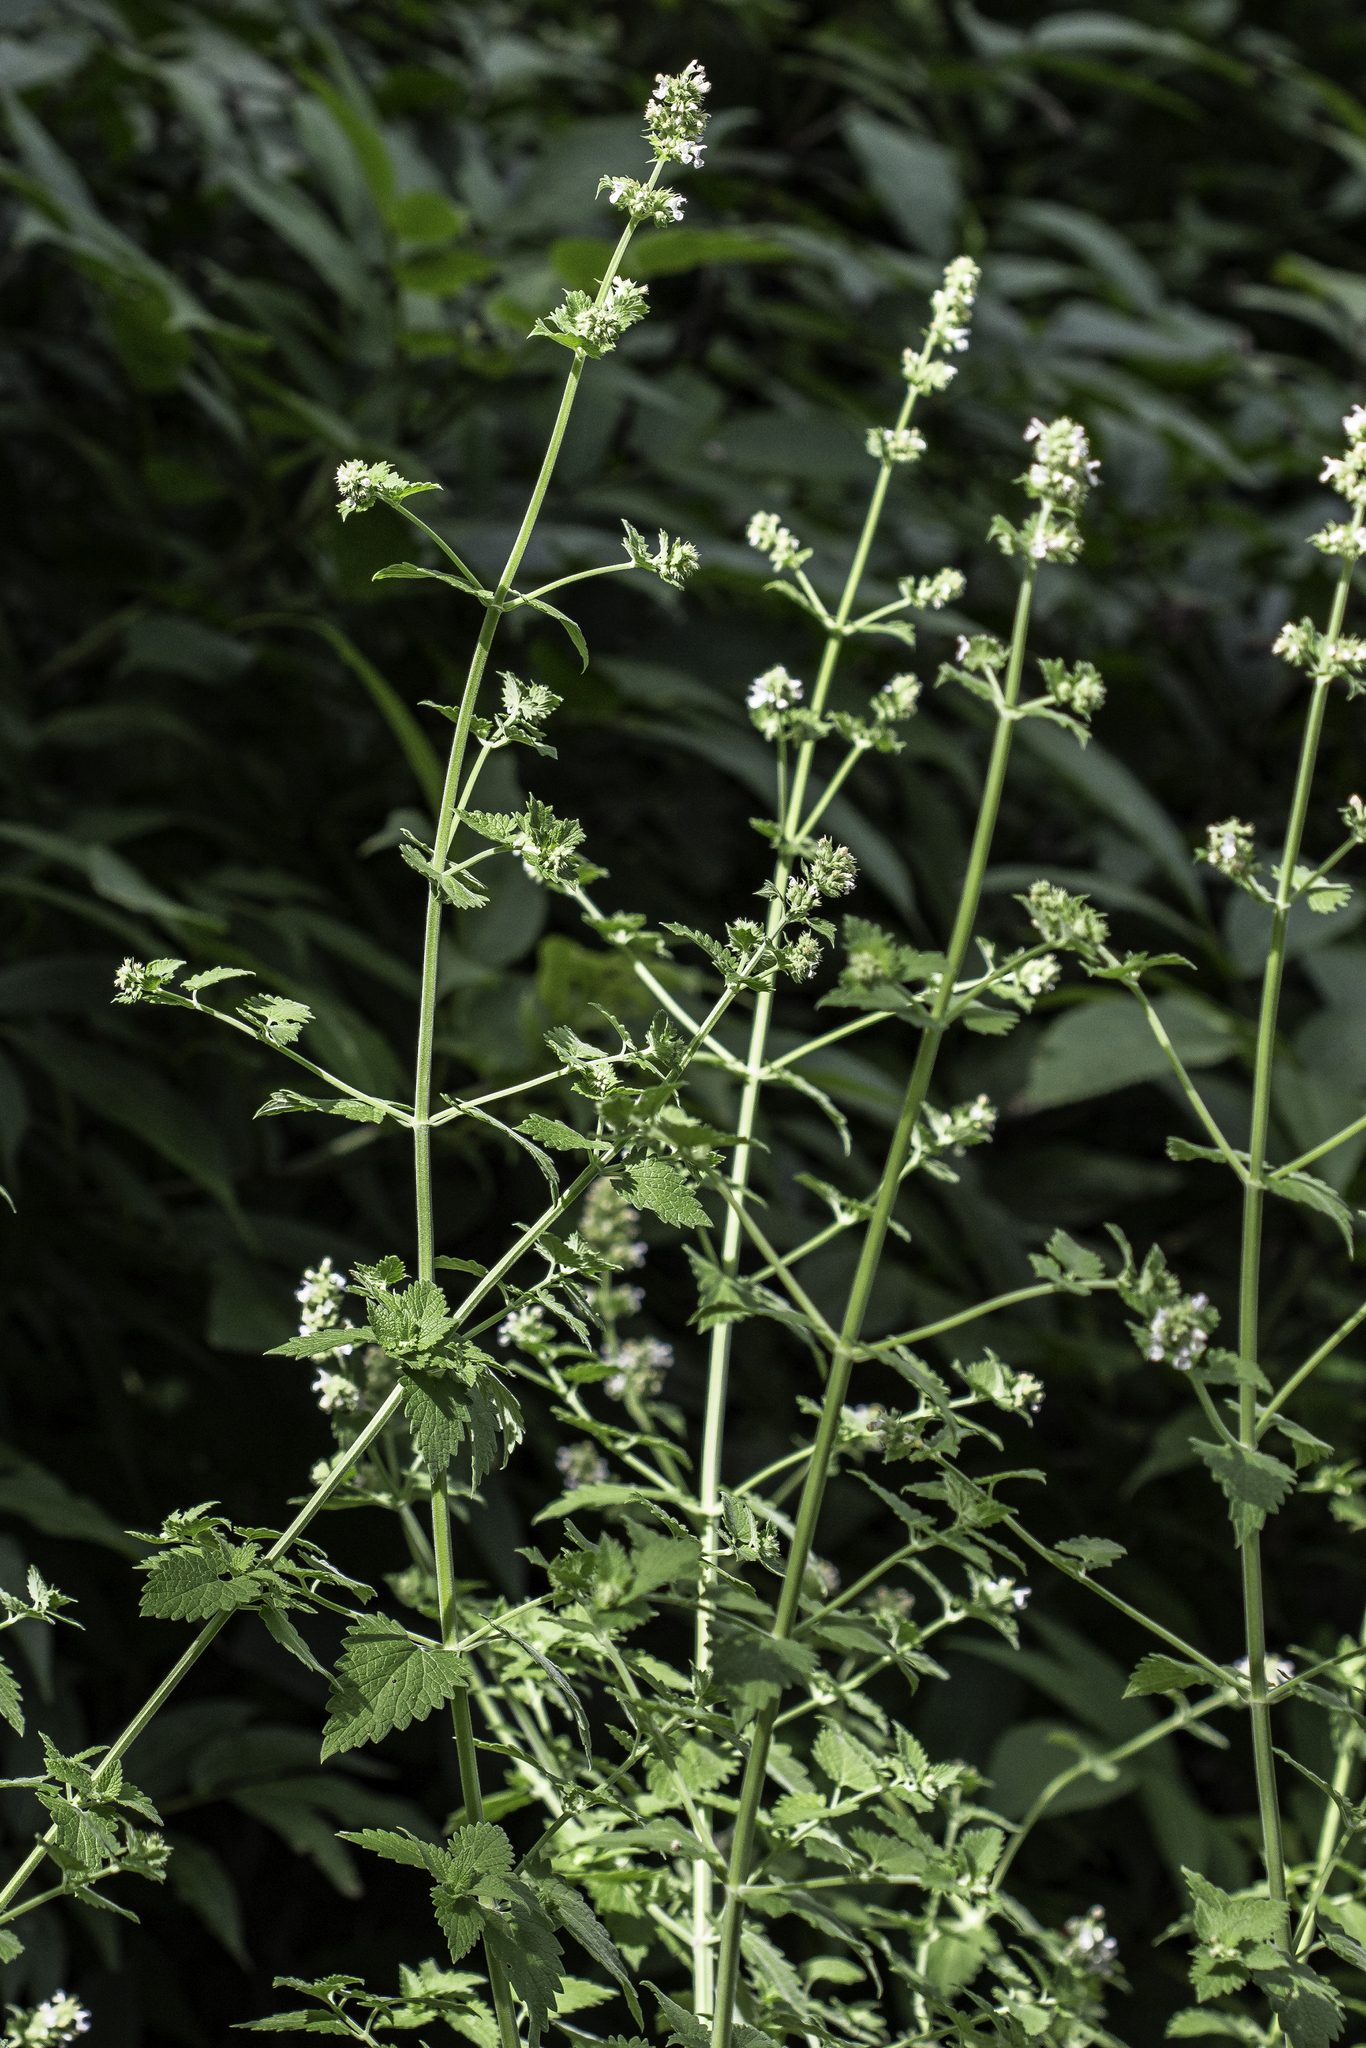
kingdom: Plantae
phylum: Tracheophyta
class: Magnoliopsida
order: Lamiales
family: Lamiaceae
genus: Nepeta
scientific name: Nepeta cataria
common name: Catnip
